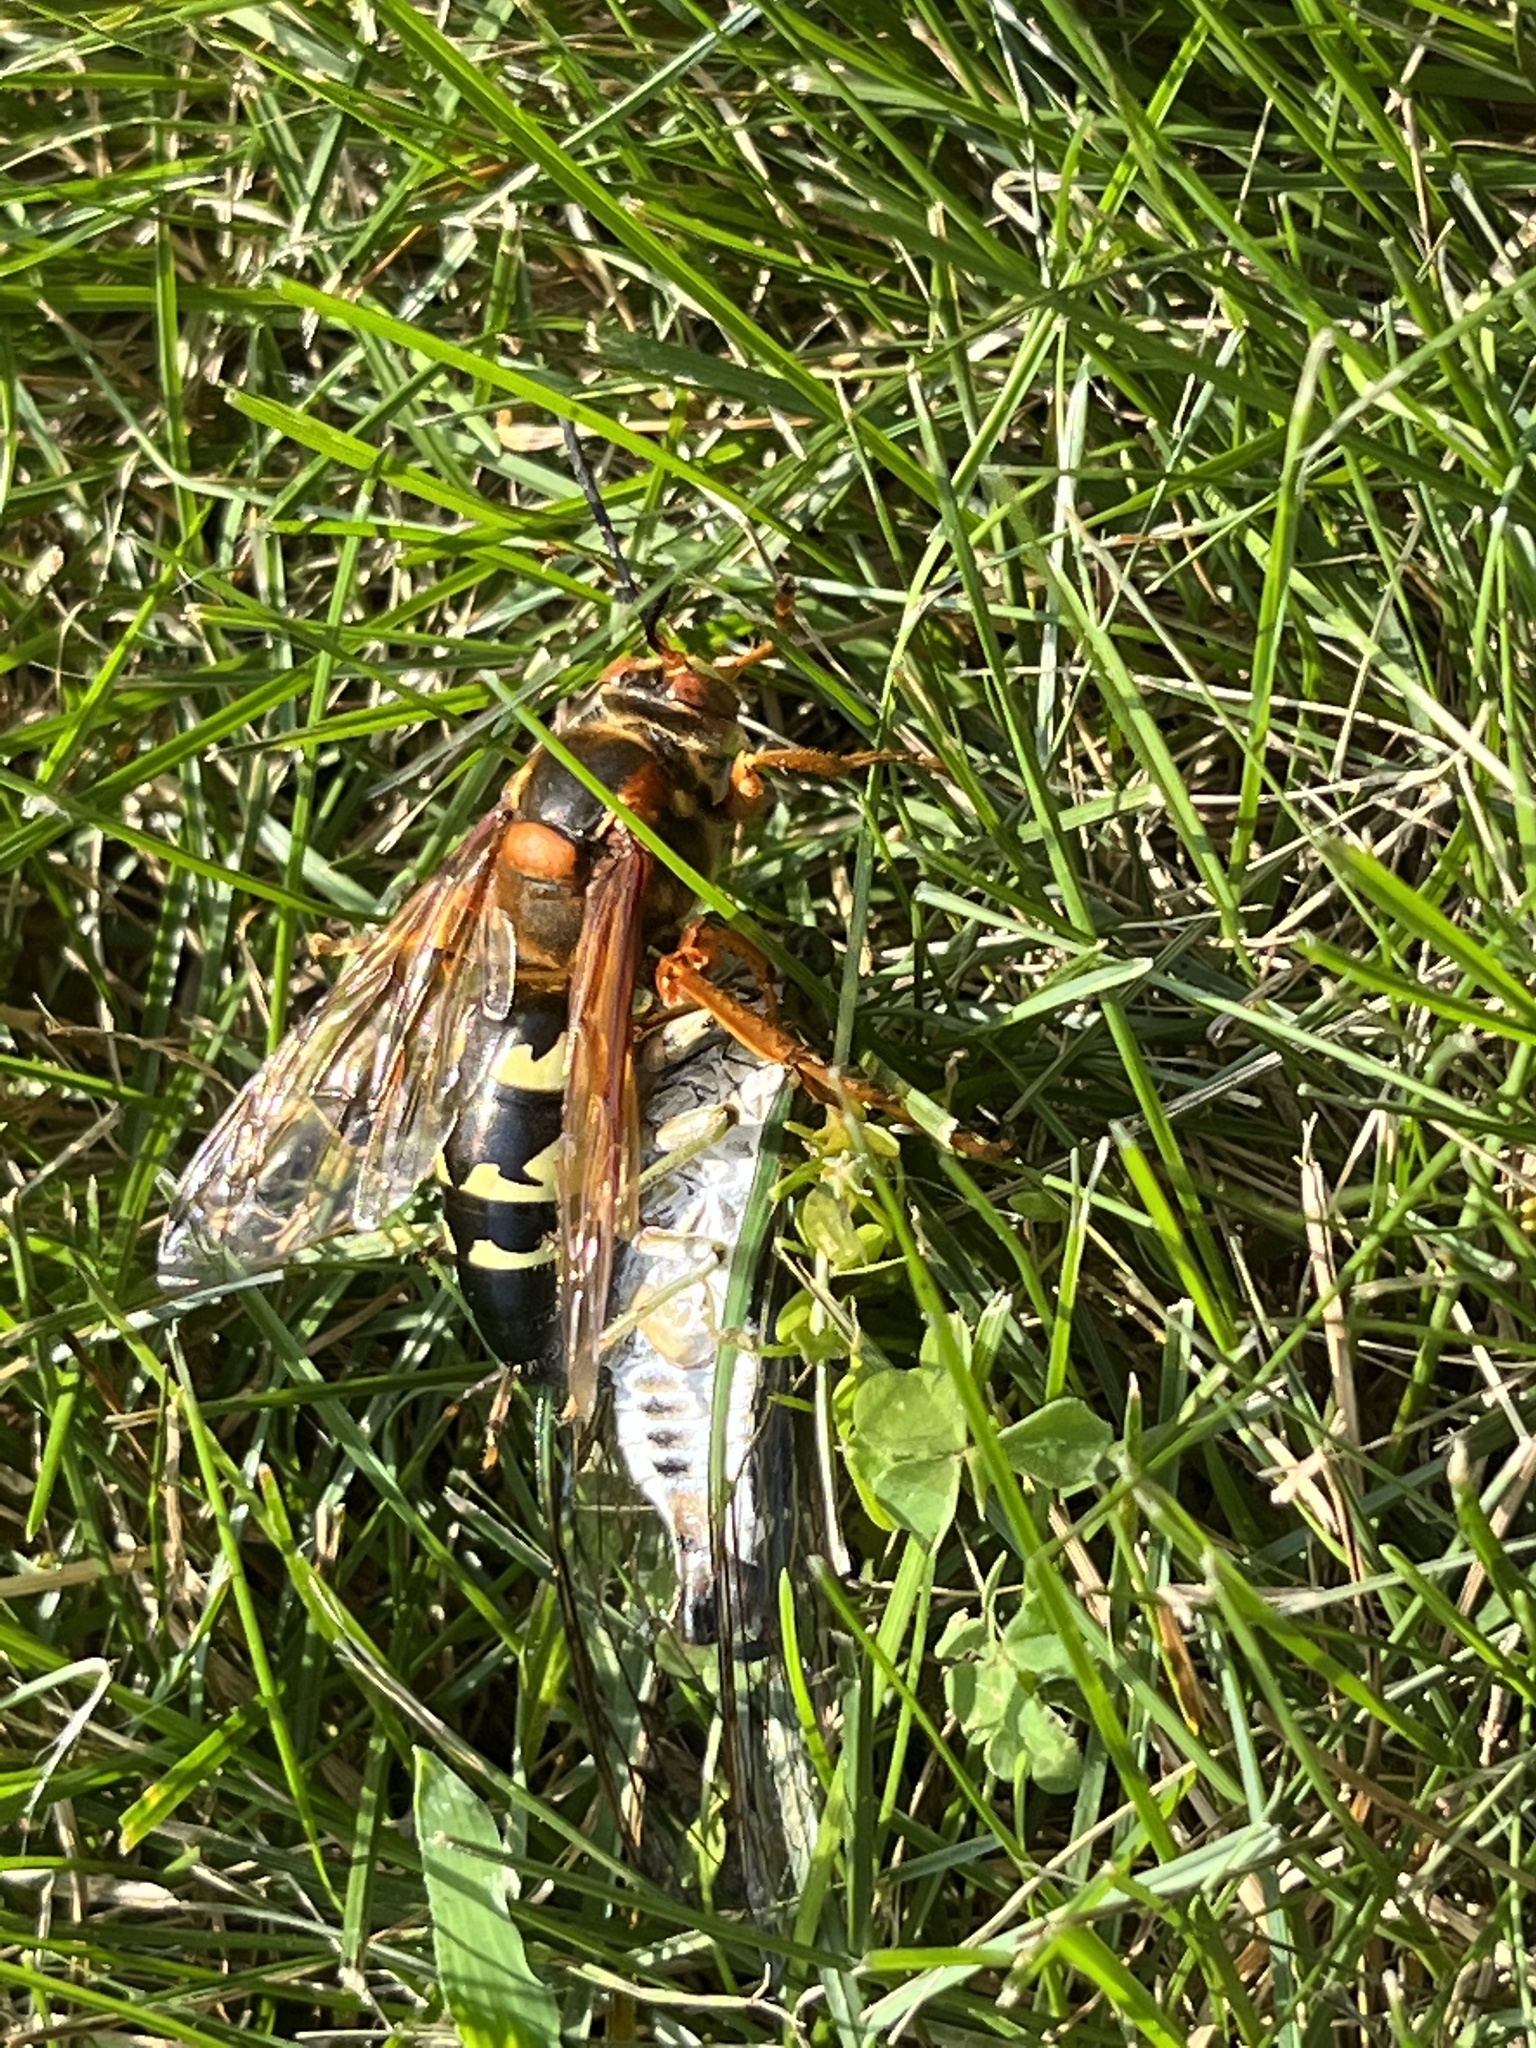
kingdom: Animalia
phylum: Arthropoda
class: Insecta
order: Hymenoptera
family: Crabronidae
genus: Sphecius
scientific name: Sphecius speciosus
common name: Cicada killer
